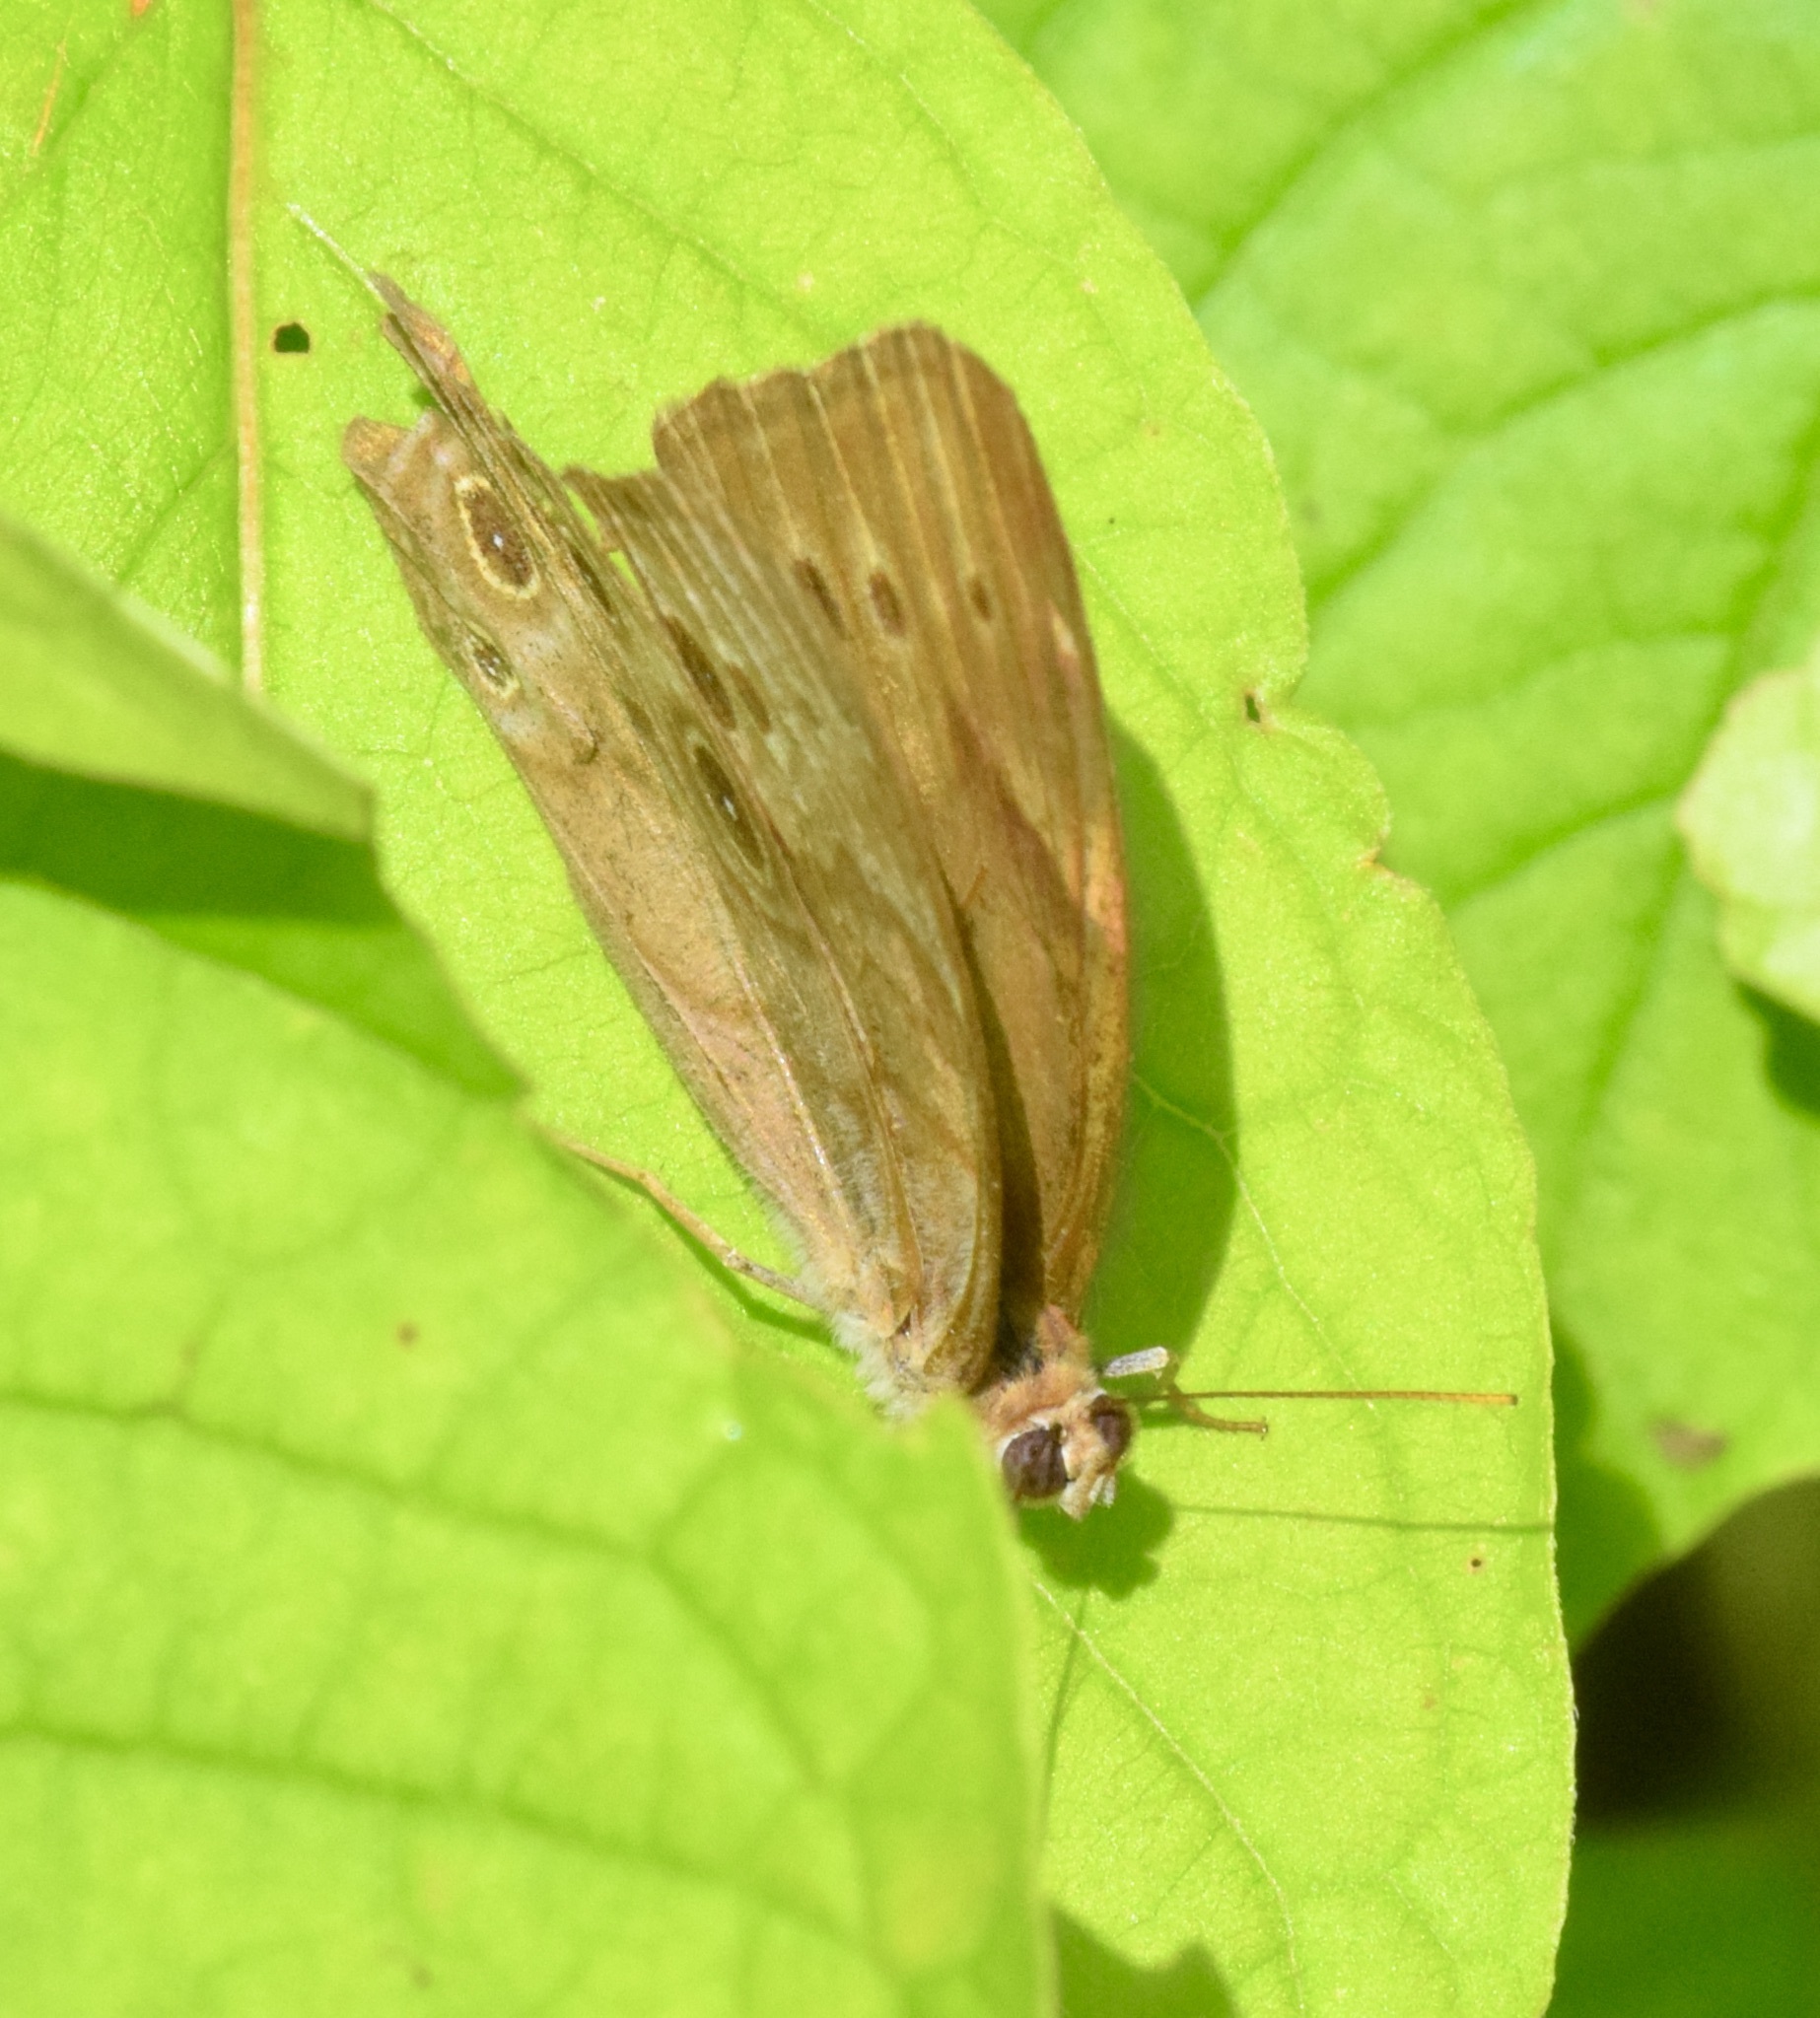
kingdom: Animalia
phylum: Arthropoda
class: Insecta
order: Lepidoptera
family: Nymphalidae
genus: Lethe
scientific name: Lethe anthedon
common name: Northern pearly-eye
